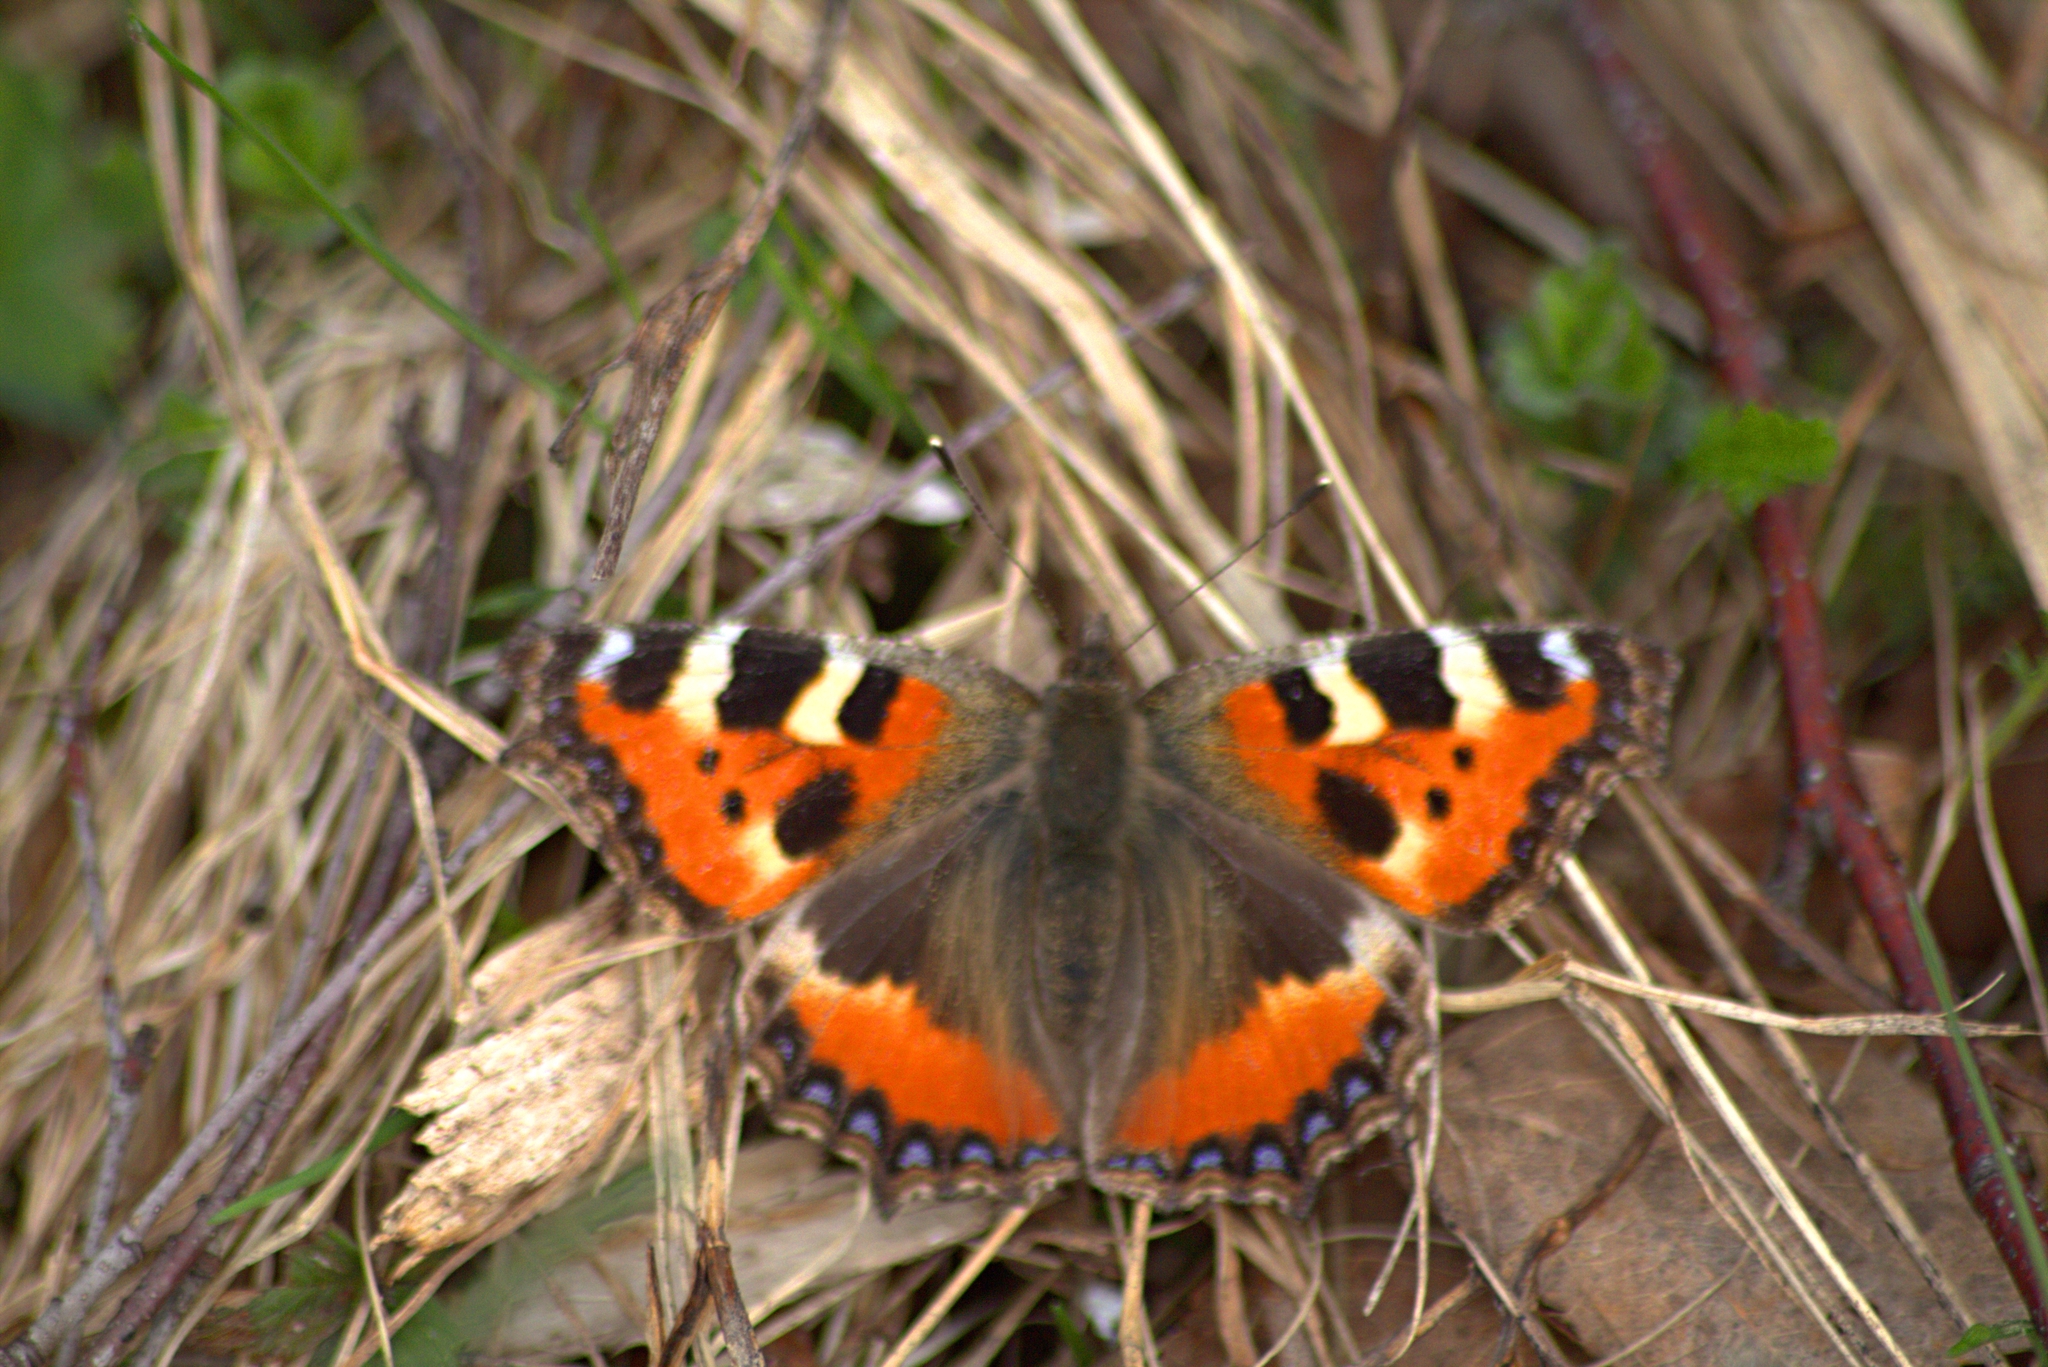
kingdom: Animalia
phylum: Arthropoda
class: Insecta
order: Lepidoptera
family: Nymphalidae
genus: Aglais
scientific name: Aglais urticae
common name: Small tortoiseshell
